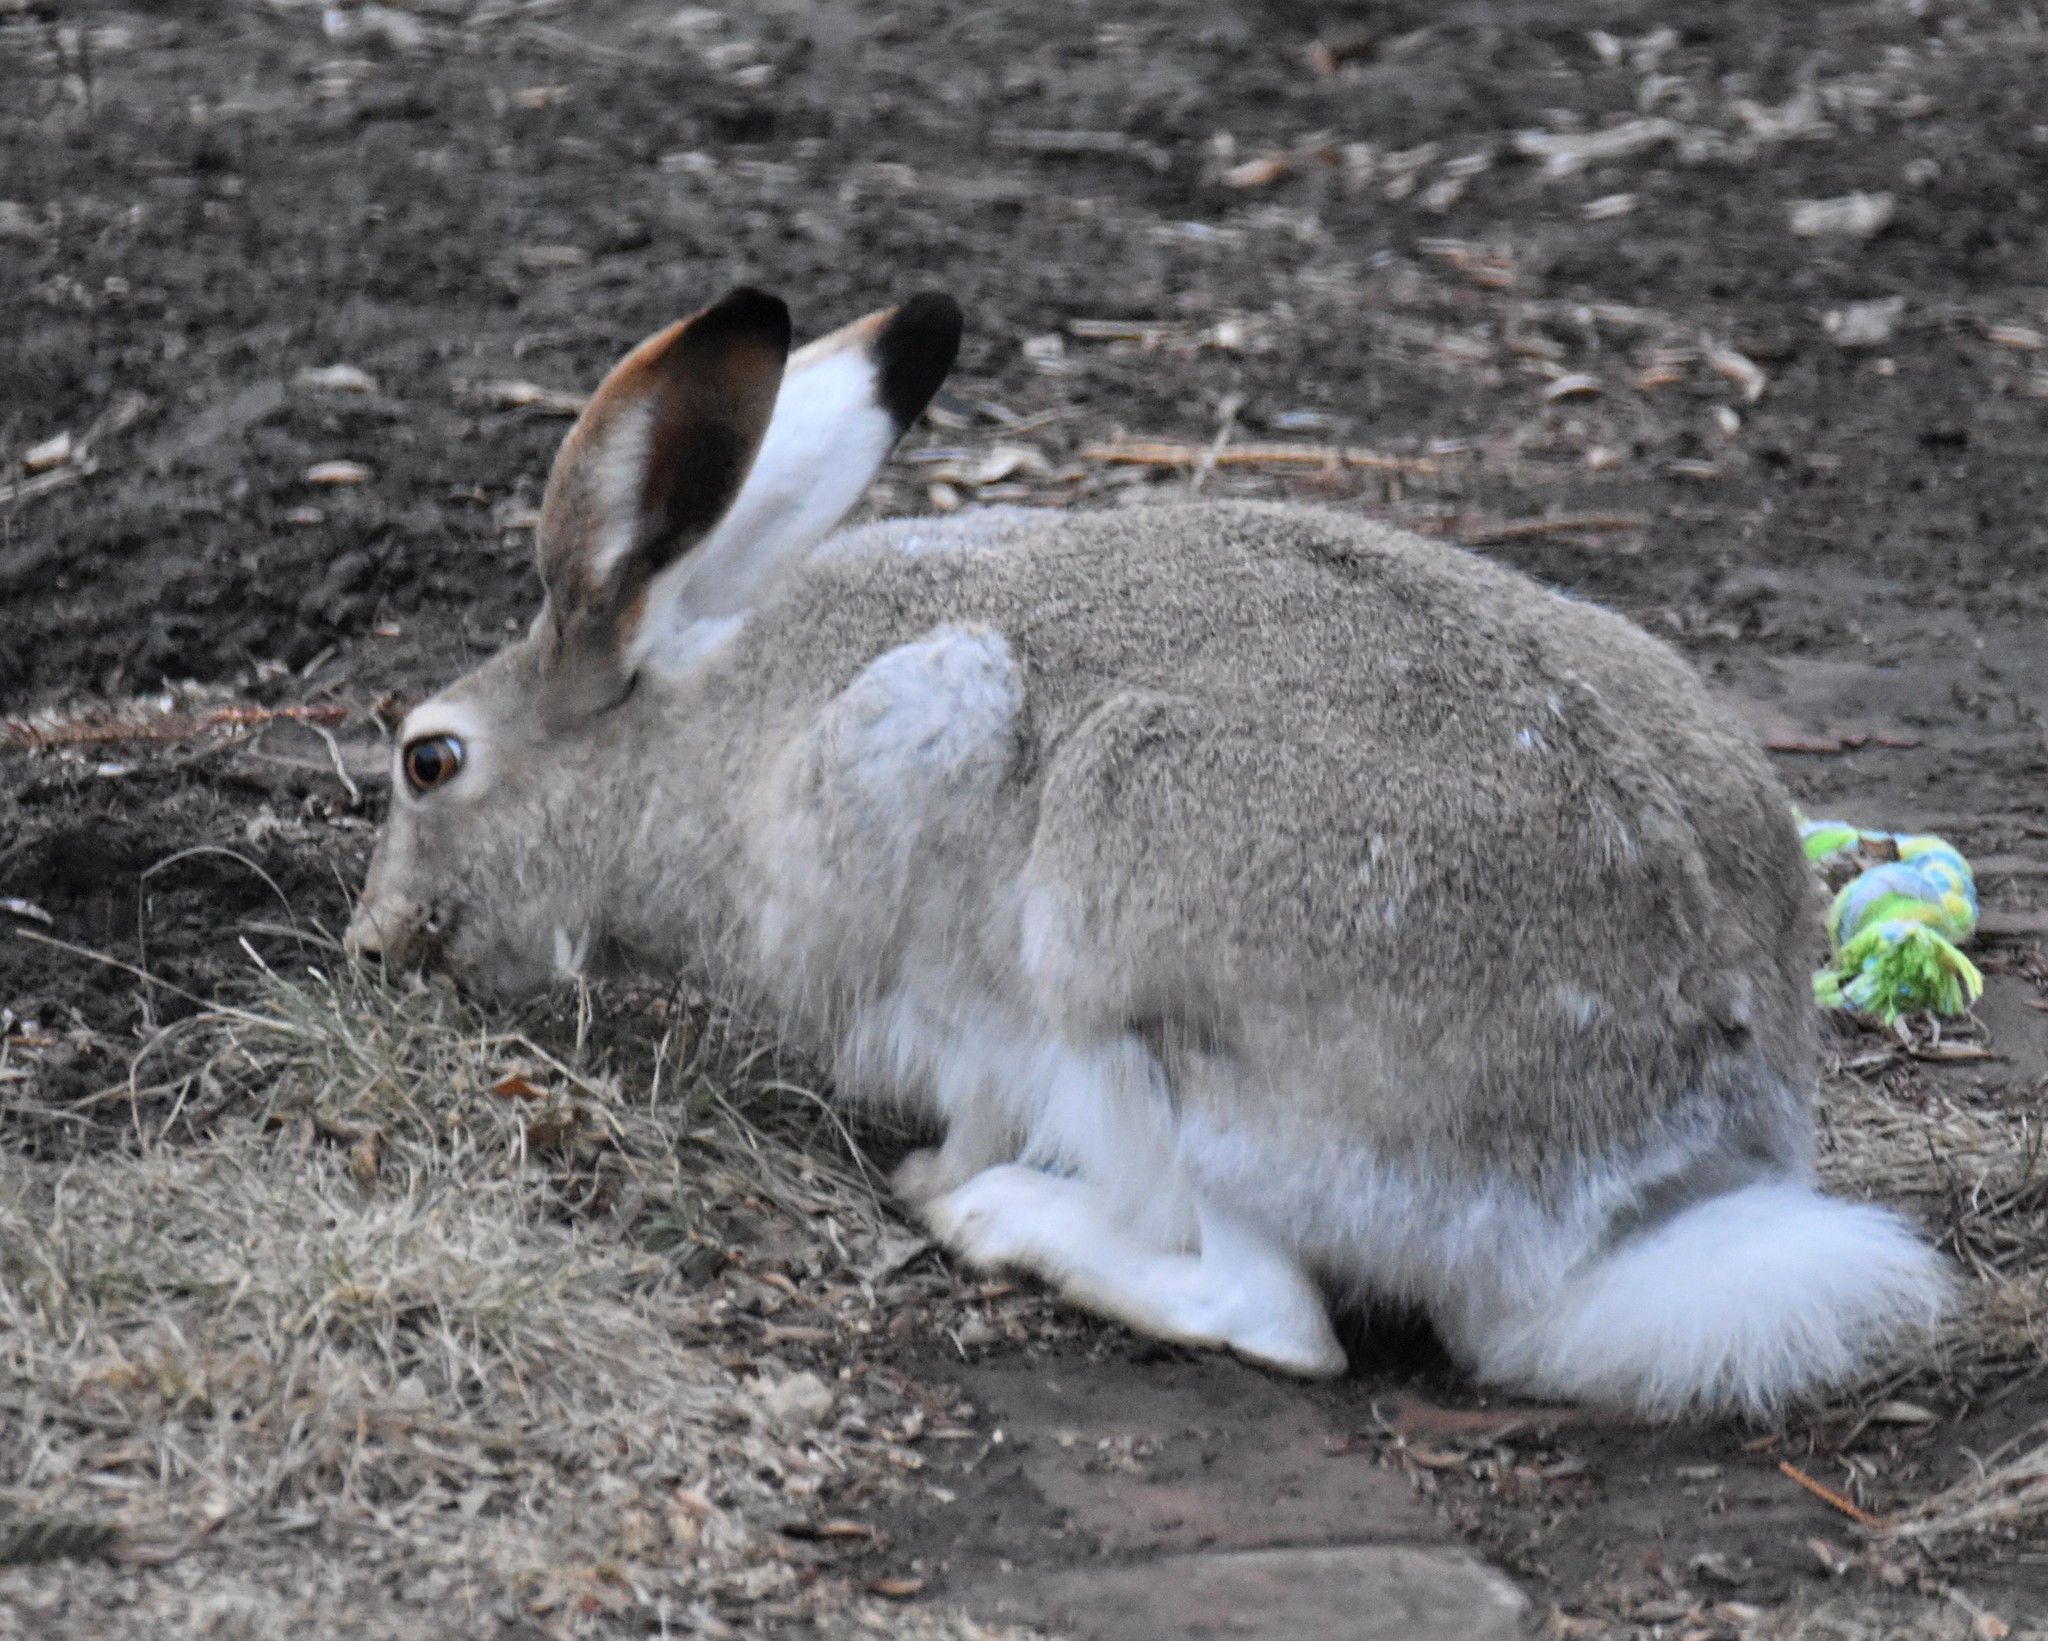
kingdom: Animalia
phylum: Chordata
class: Mammalia
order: Lagomorpha
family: Leporidae
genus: Lepus
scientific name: Lepus townsendii
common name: White-tailed jackrabbit
